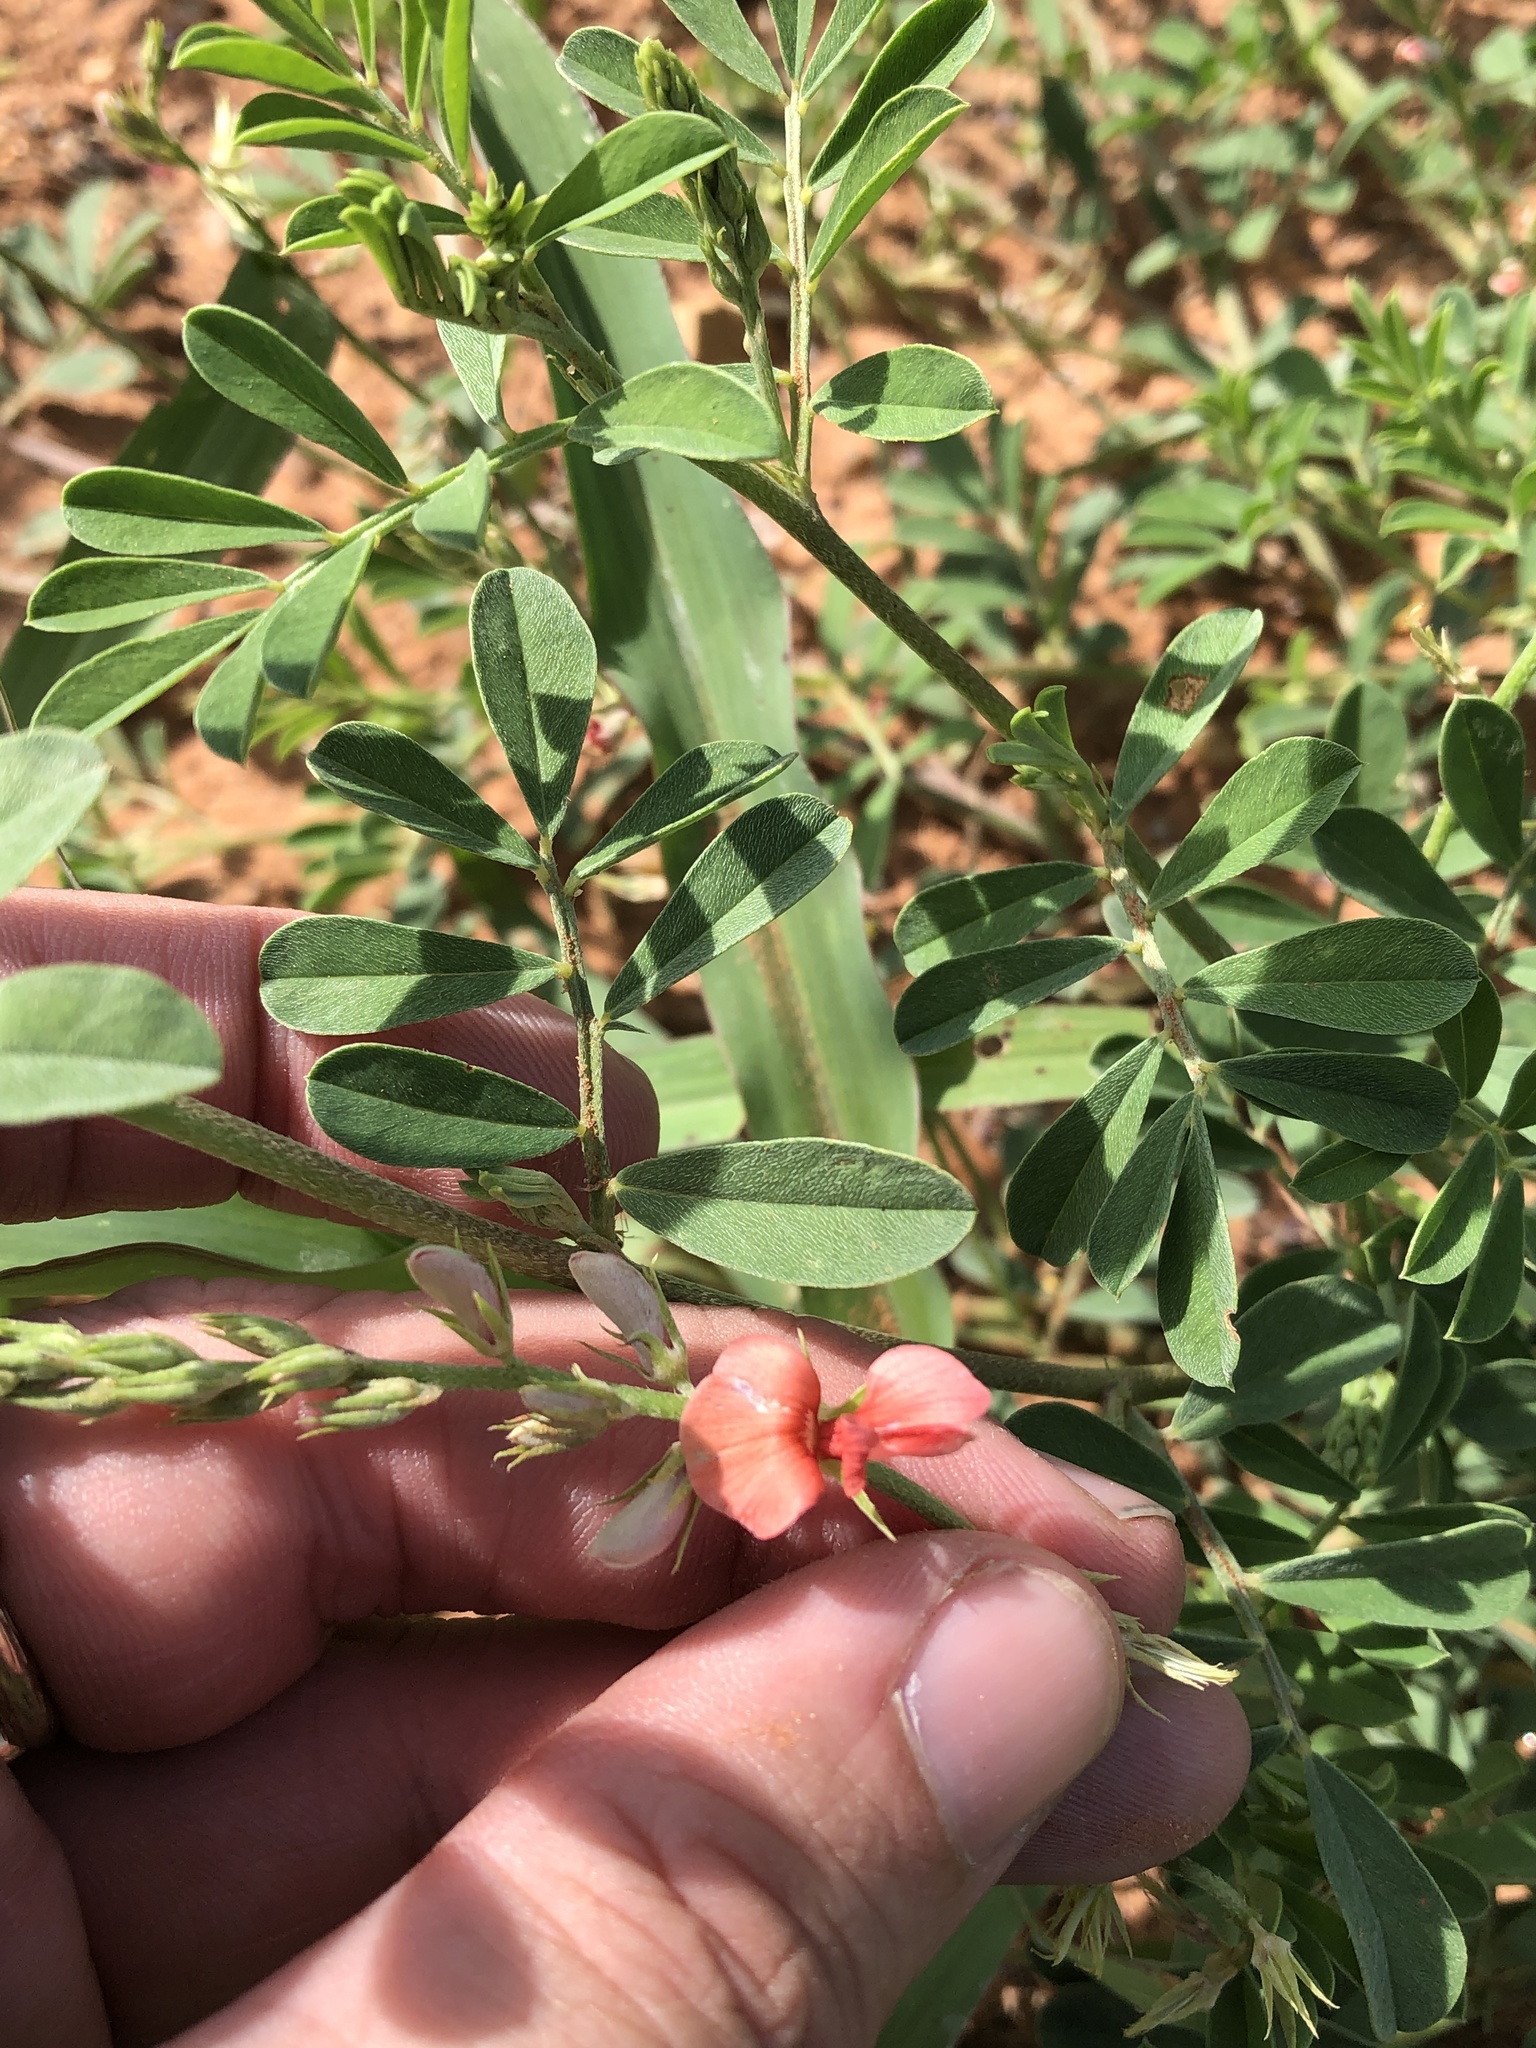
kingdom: Plantae
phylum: Tracheophyta
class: Magnoliopsida
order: Fabales
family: Fabaceae
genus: Indigofera
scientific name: Indigofera miniata
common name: Coast indigo
